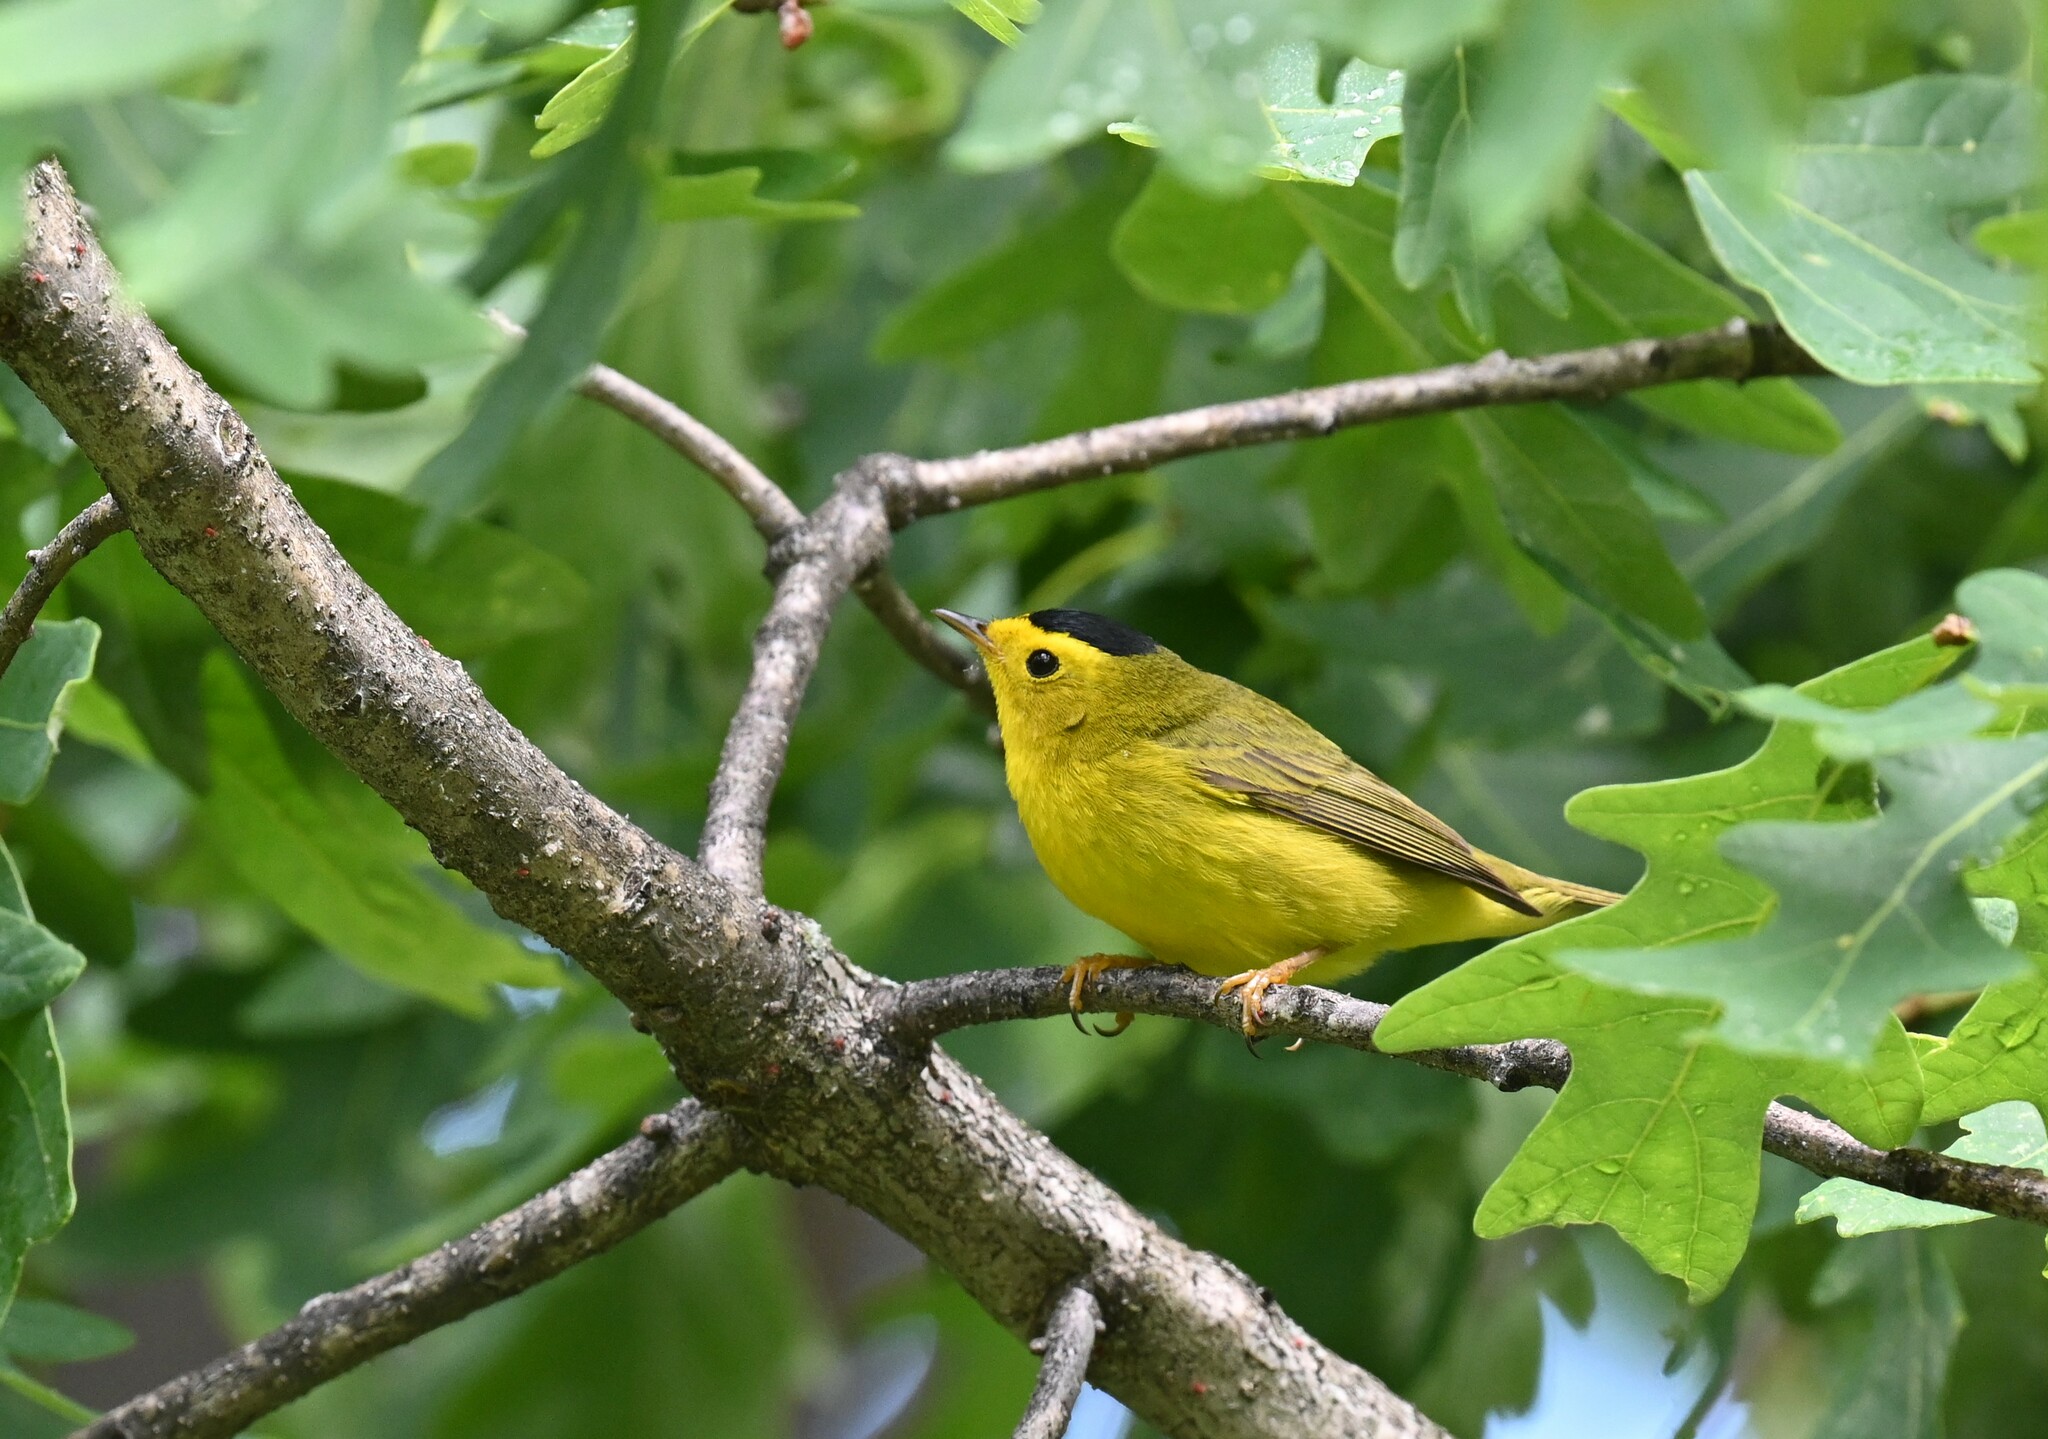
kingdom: Animalia
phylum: Chordata
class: Aves
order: Passeriformes
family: Parulidae
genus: Cardellina
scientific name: Cardellina pusilla
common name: Wilson's warbler
